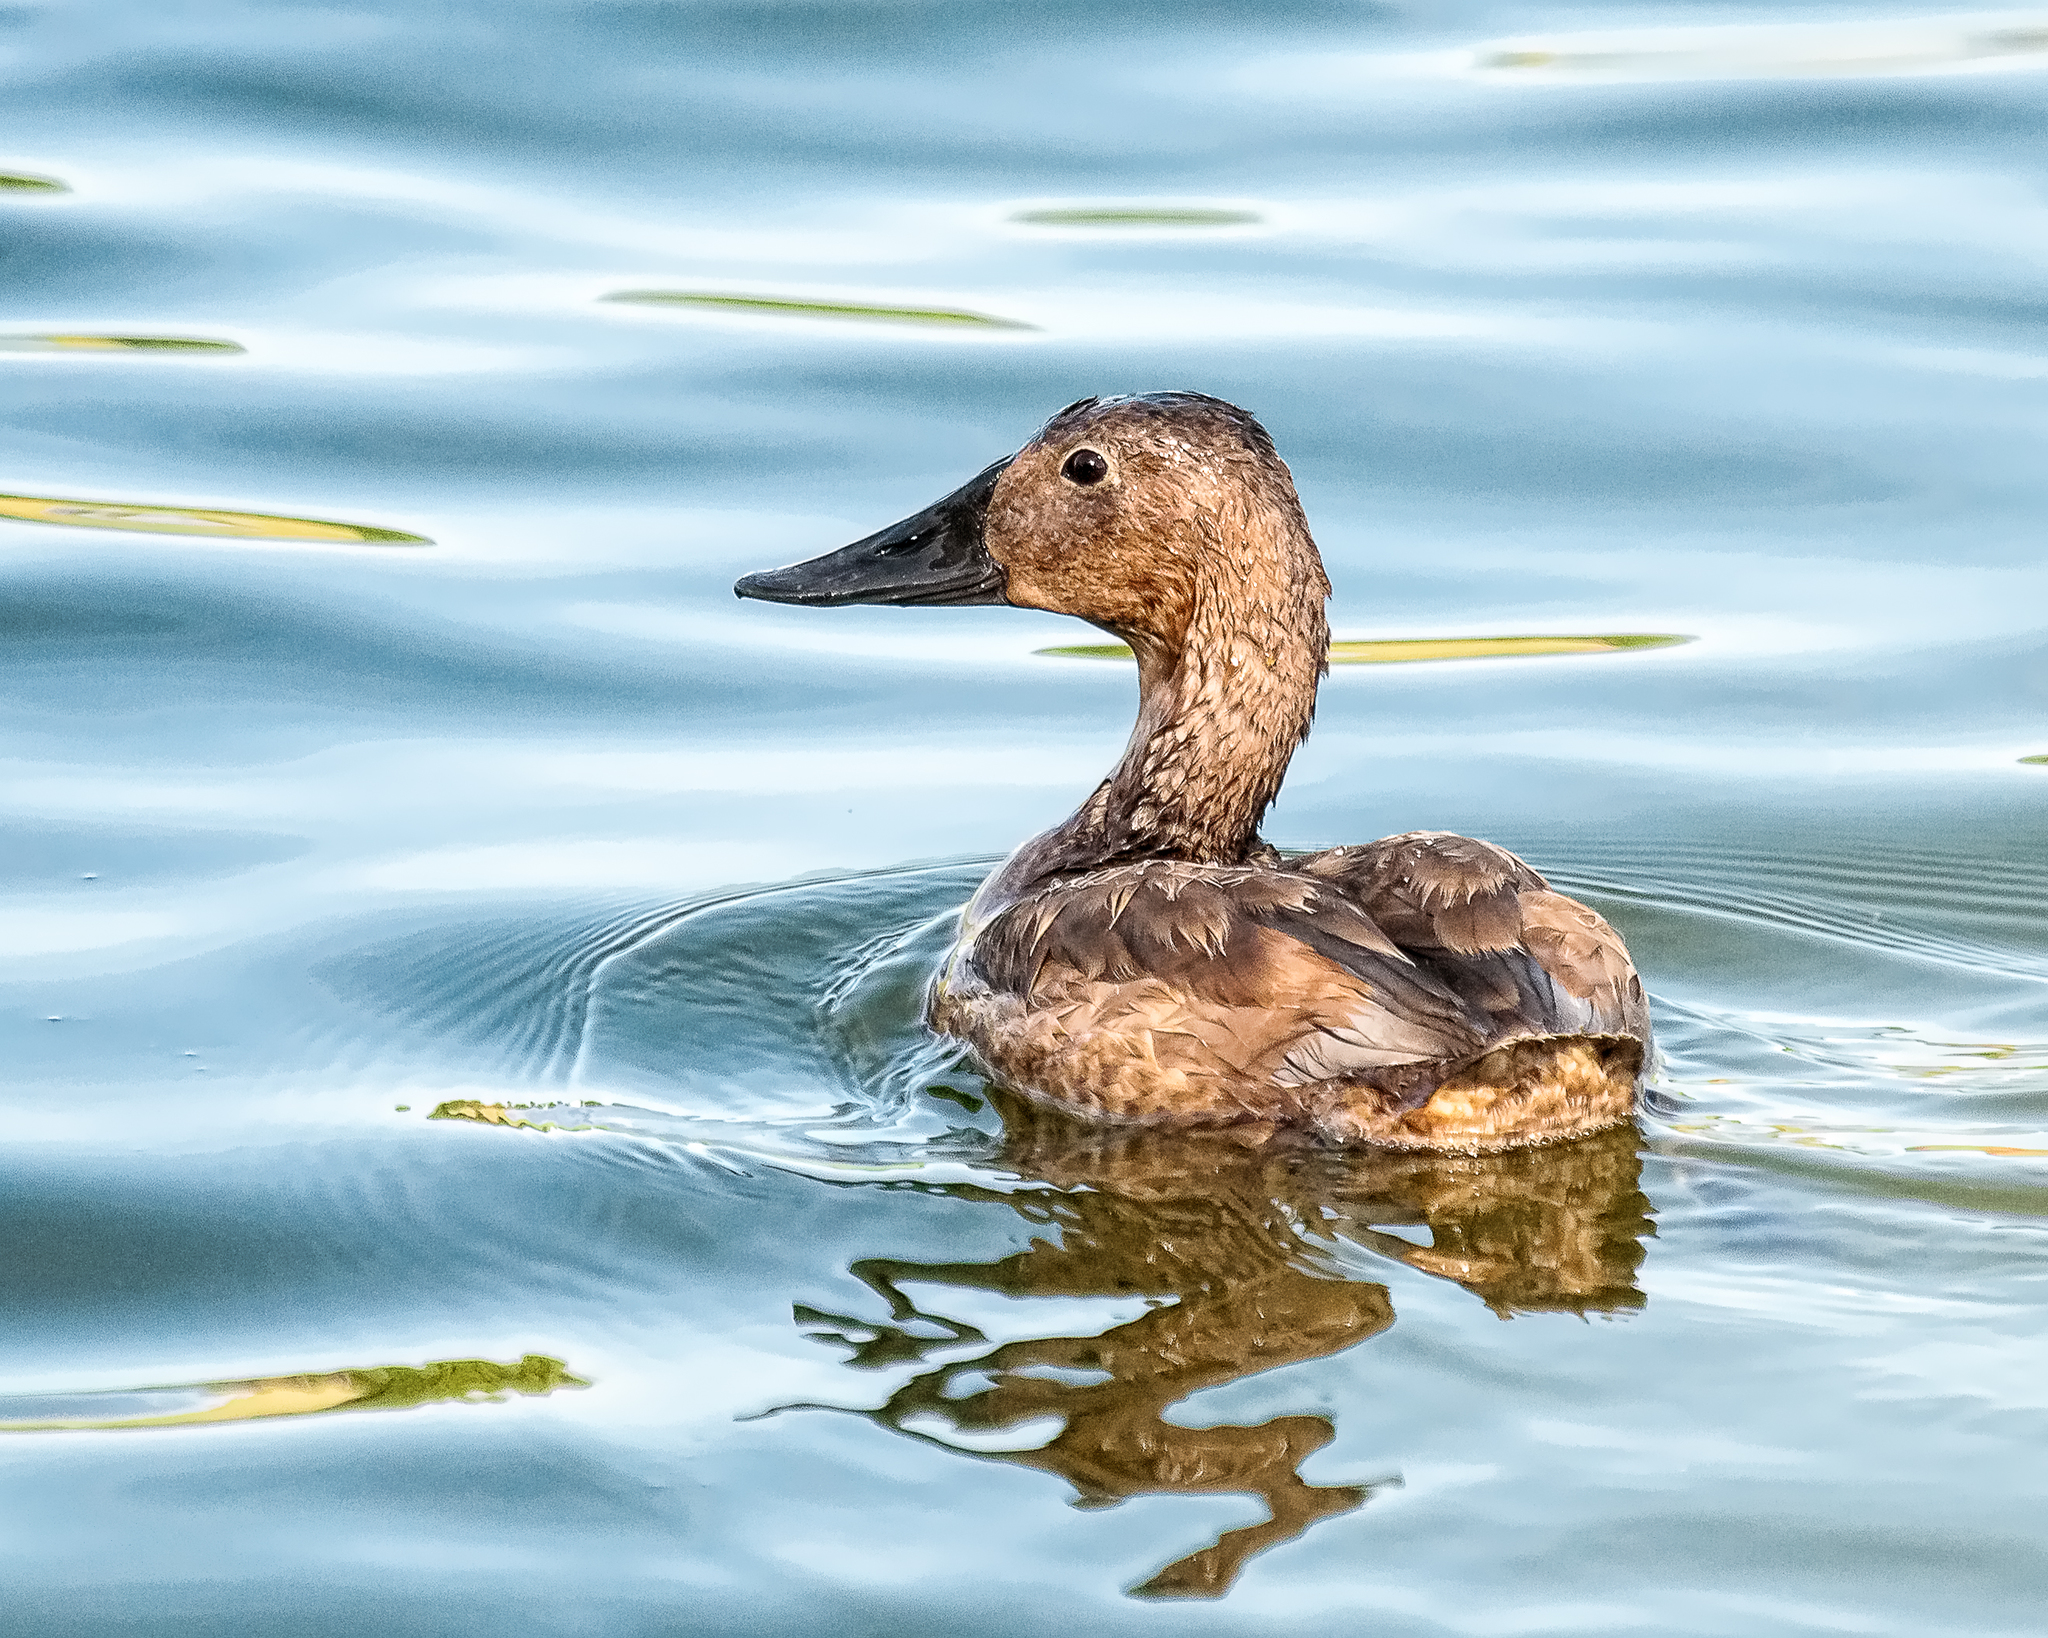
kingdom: Animalia
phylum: Chordata
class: Aves
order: Anseriformes
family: Anatidae
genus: Aythya
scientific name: Aythya valisineria
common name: Canvasback
